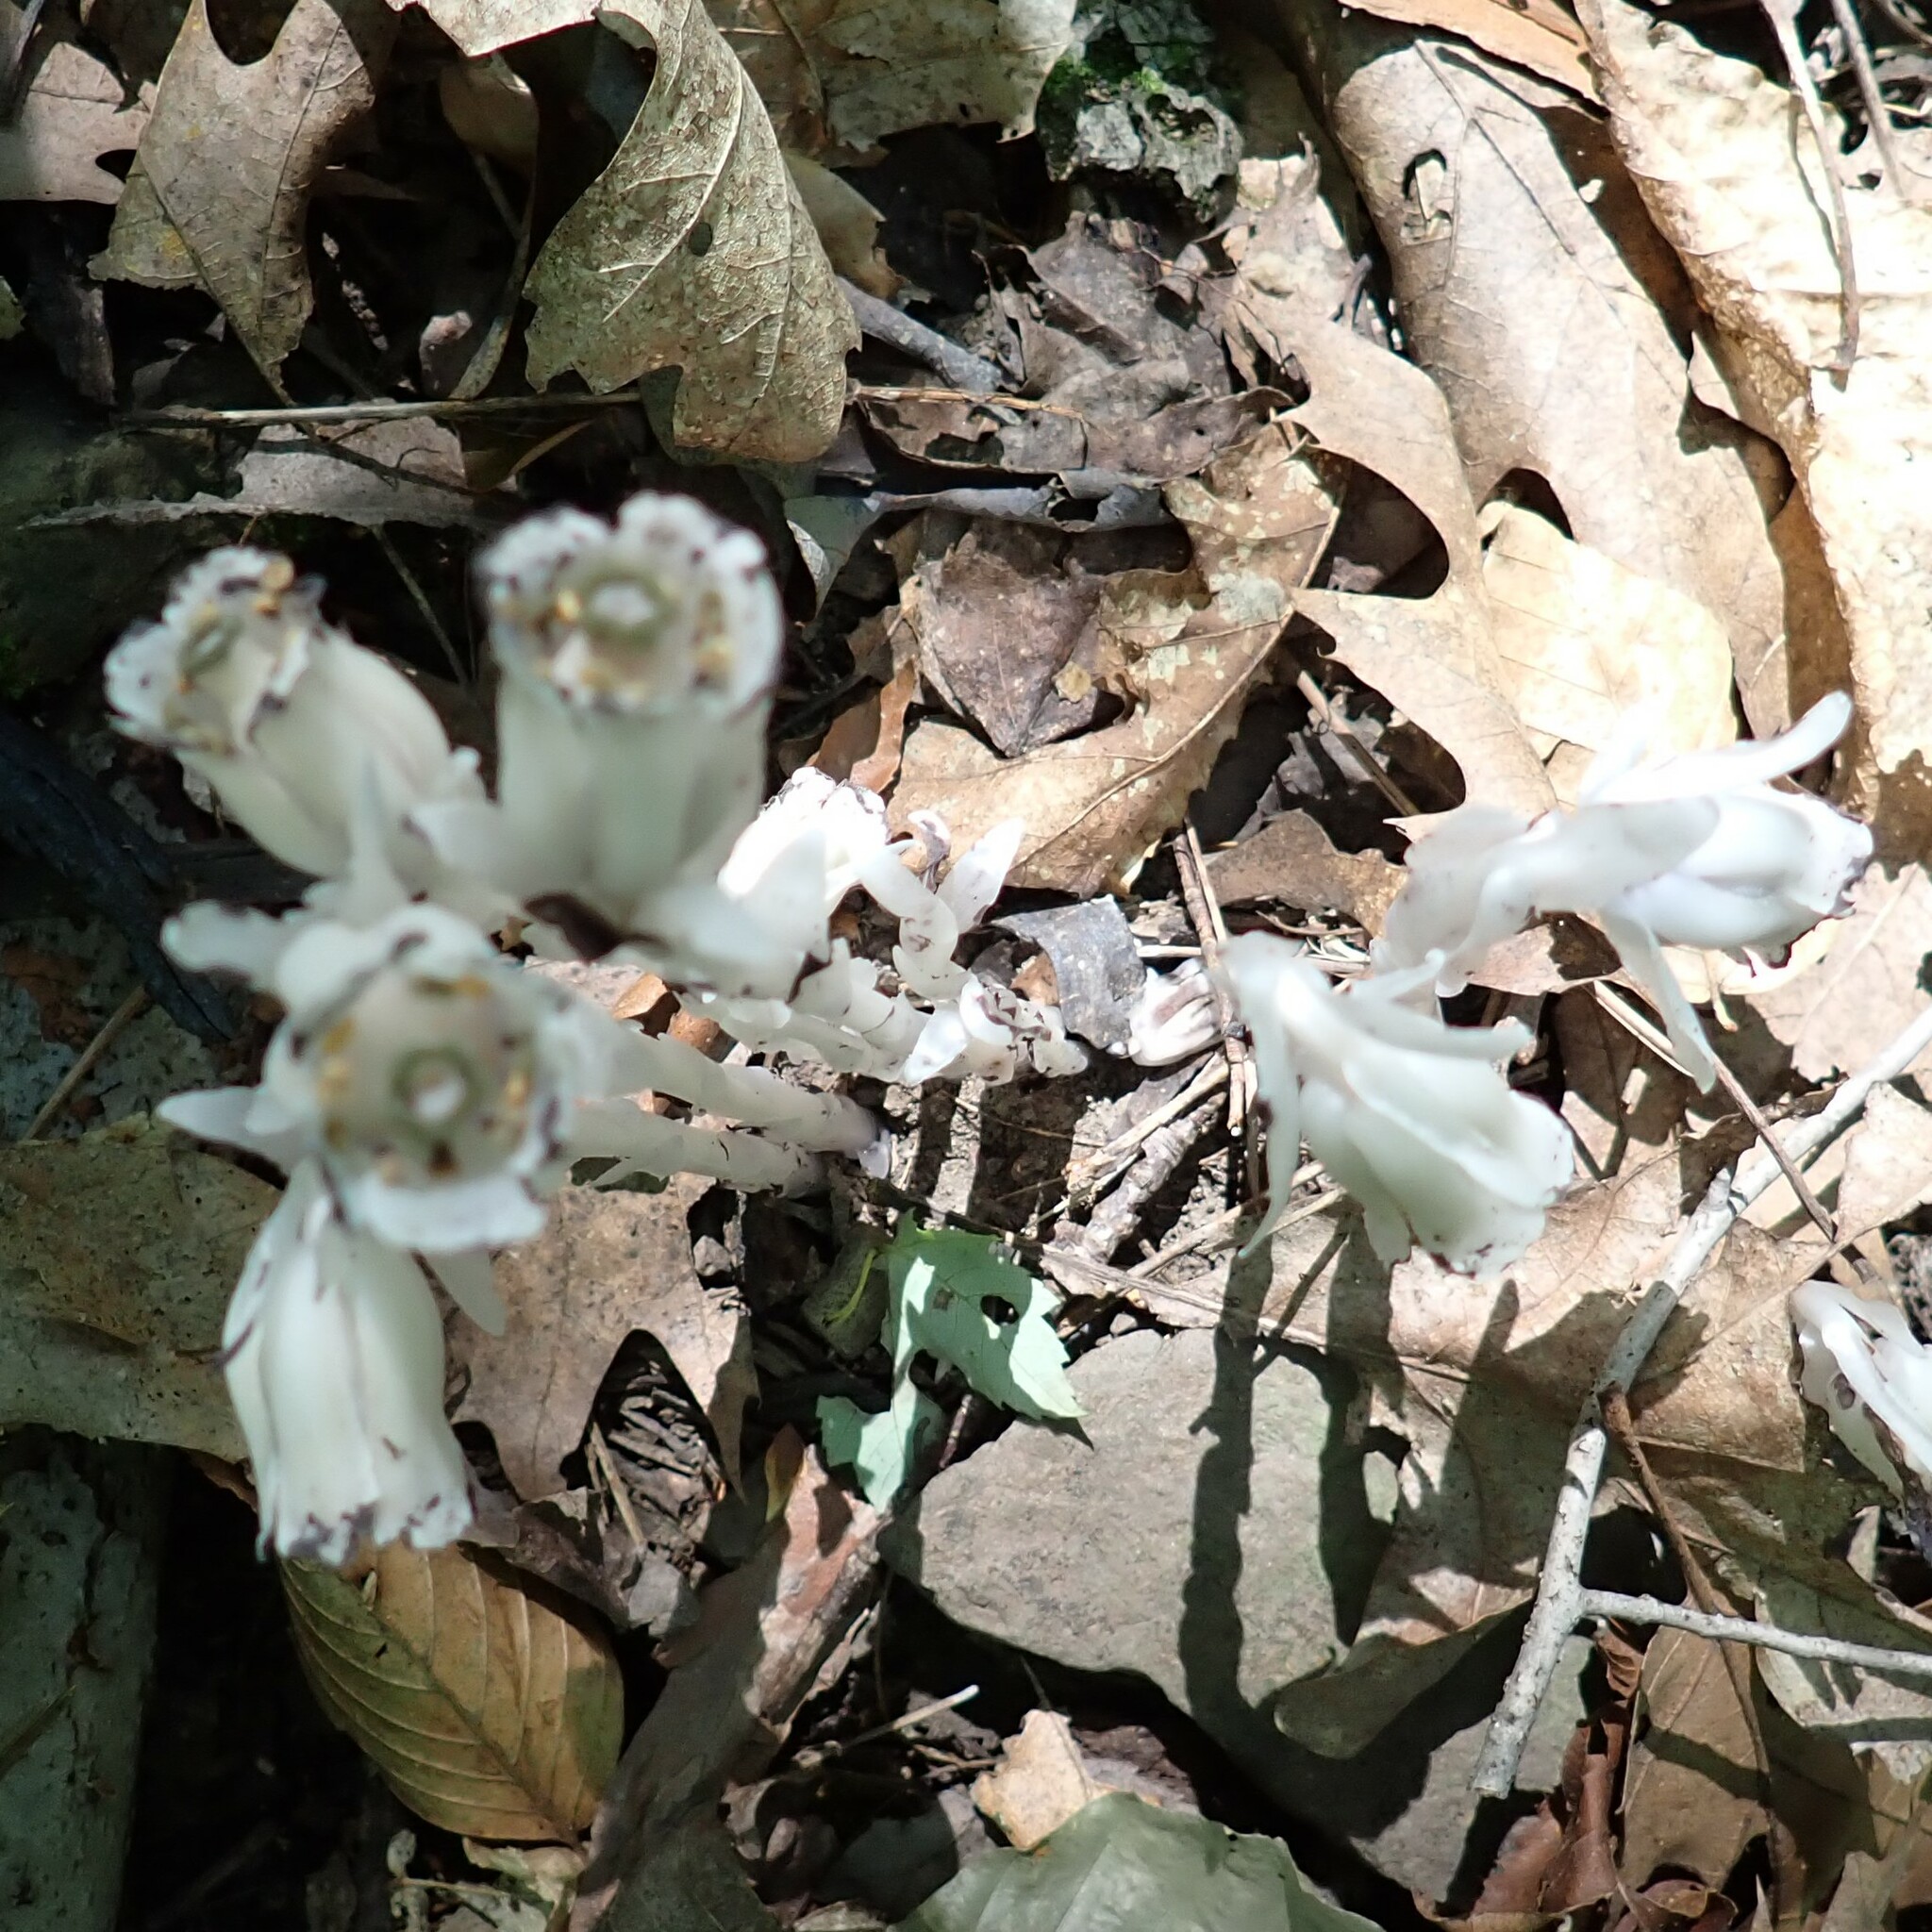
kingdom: Plantae
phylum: Tracheophyta
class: Magnoliopsida
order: Ericales
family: Ericaceae
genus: Monotropa
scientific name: Monotropa uniflora
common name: Convulsion root
